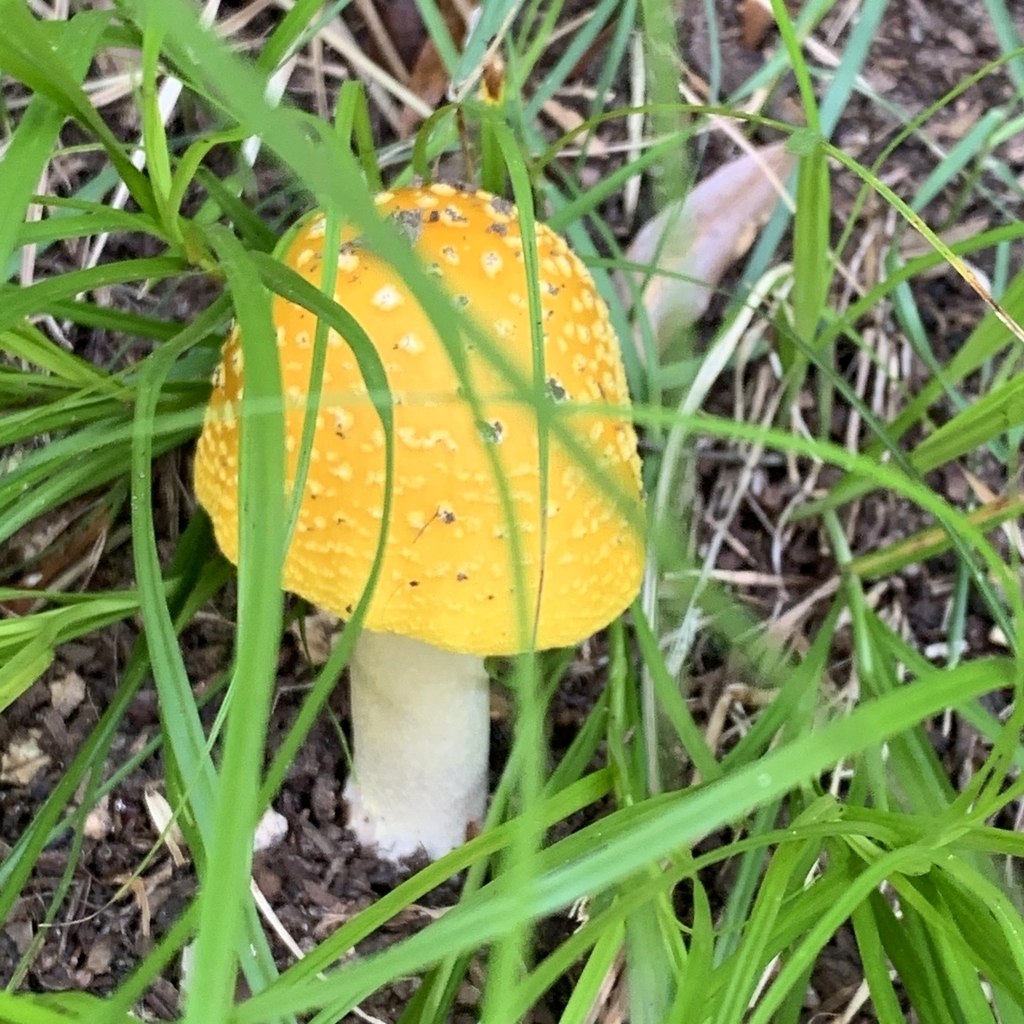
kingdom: Fungi
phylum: Basidiomycota
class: Agaricomycetes
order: Agaricales
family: Amanitaceae
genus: Amanita
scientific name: Amanita flavorubens
